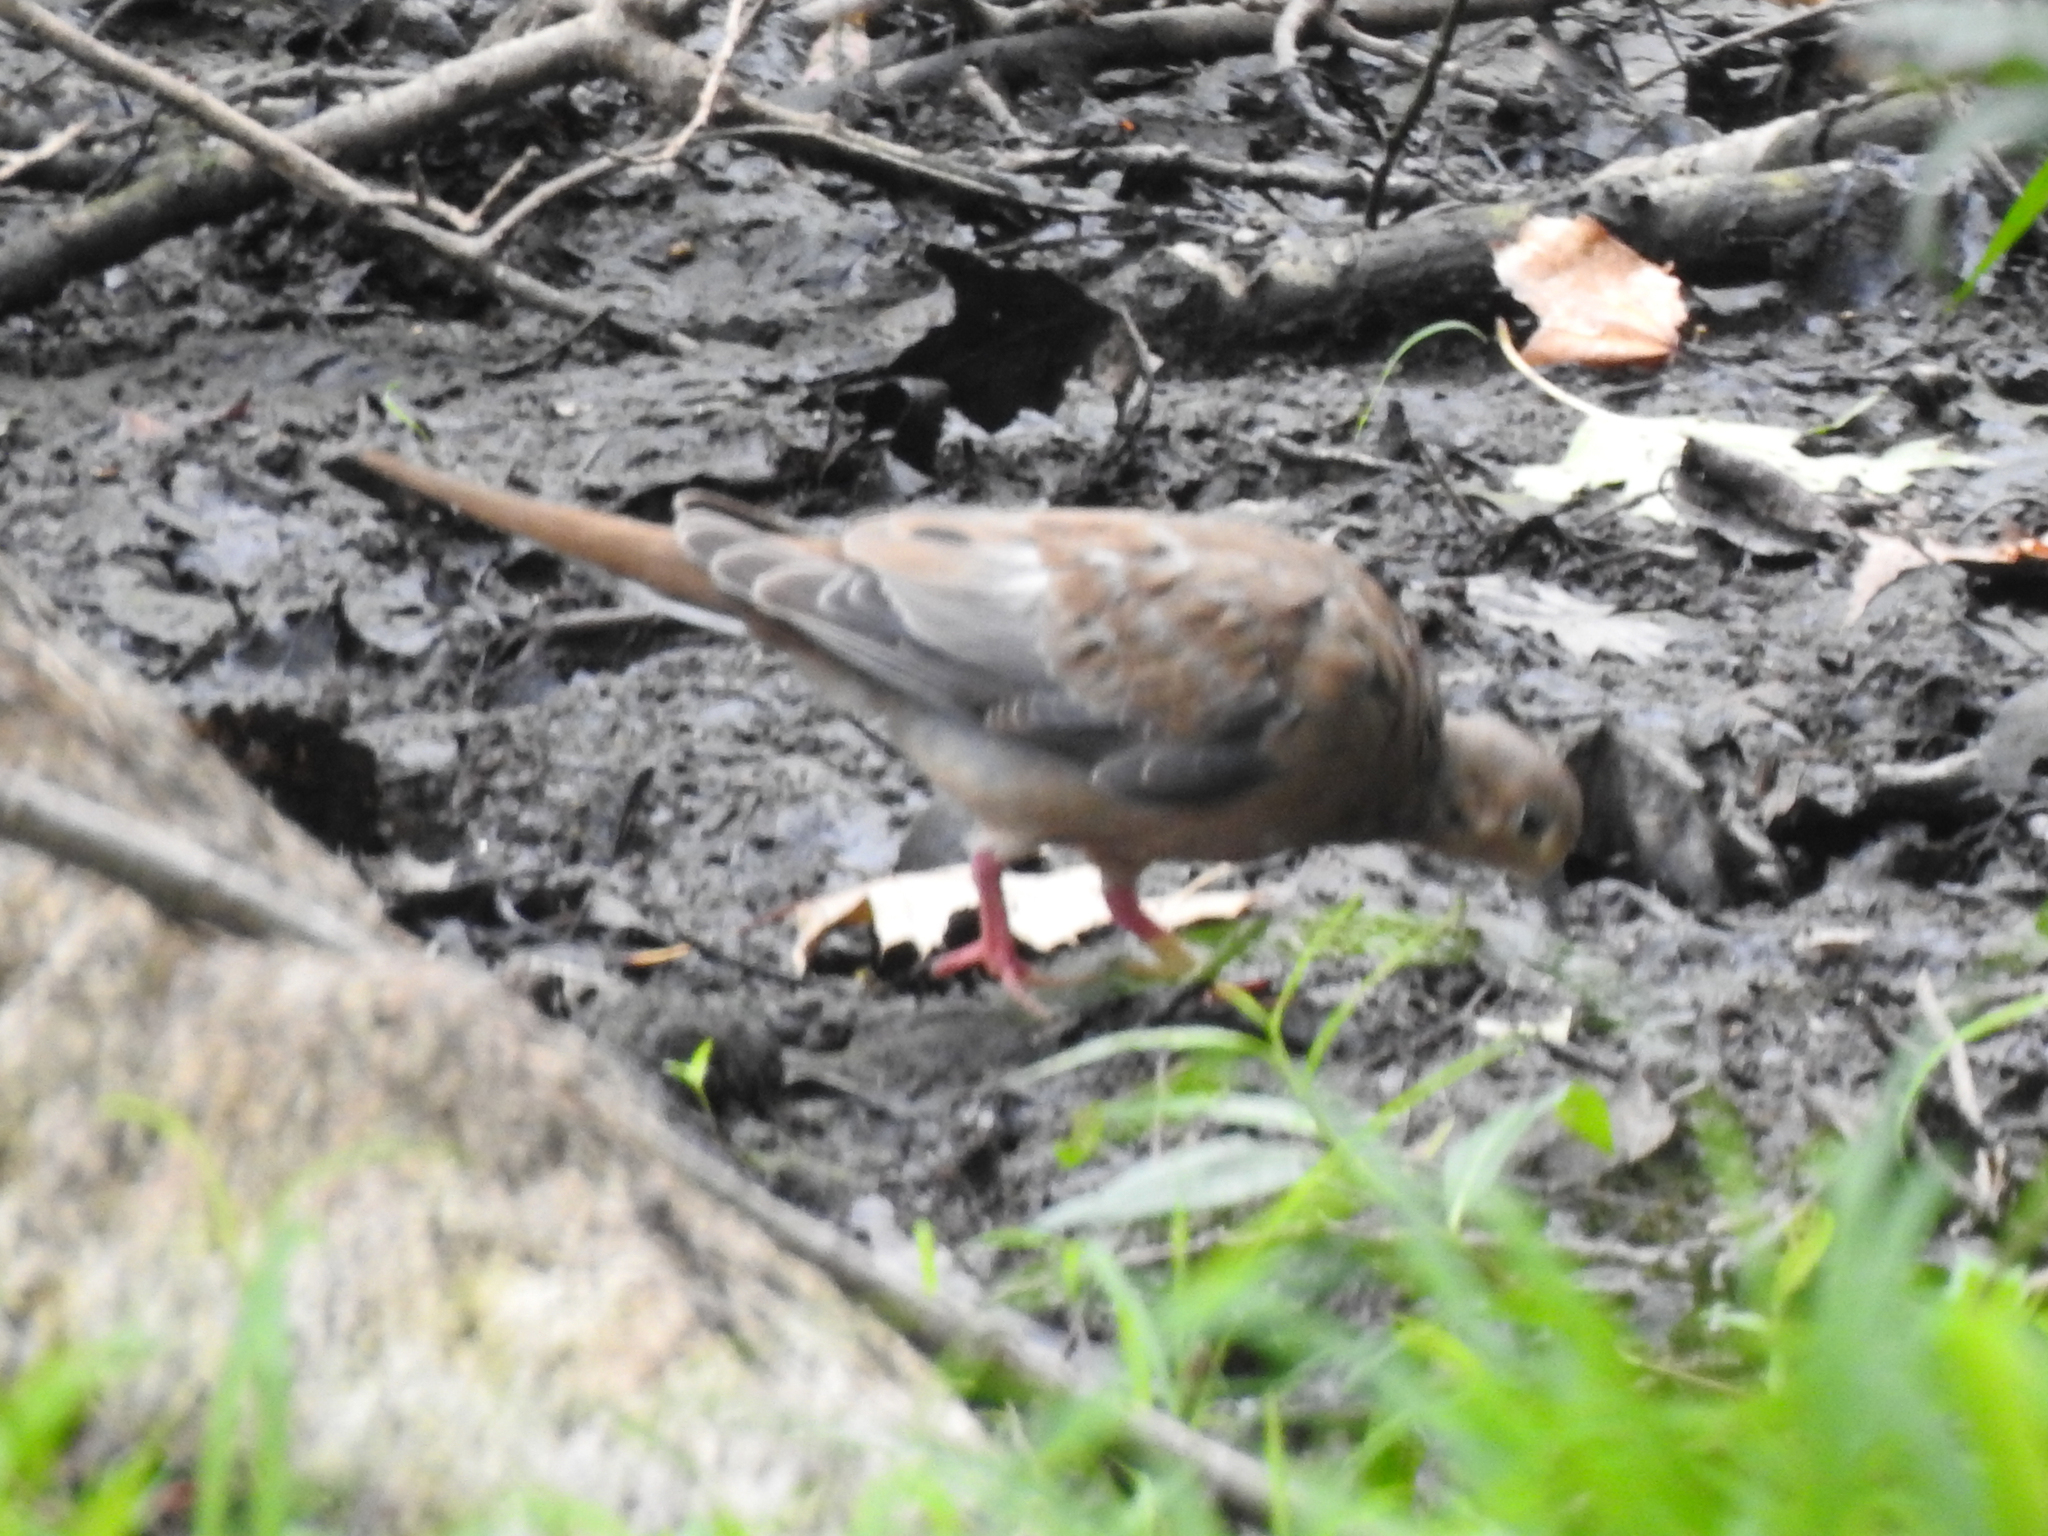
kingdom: Animalia
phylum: Chordata
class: Aves
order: Columbiformes
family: Columbidae
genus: Zenaida
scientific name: Zenaida macroura
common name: Mourning dove
